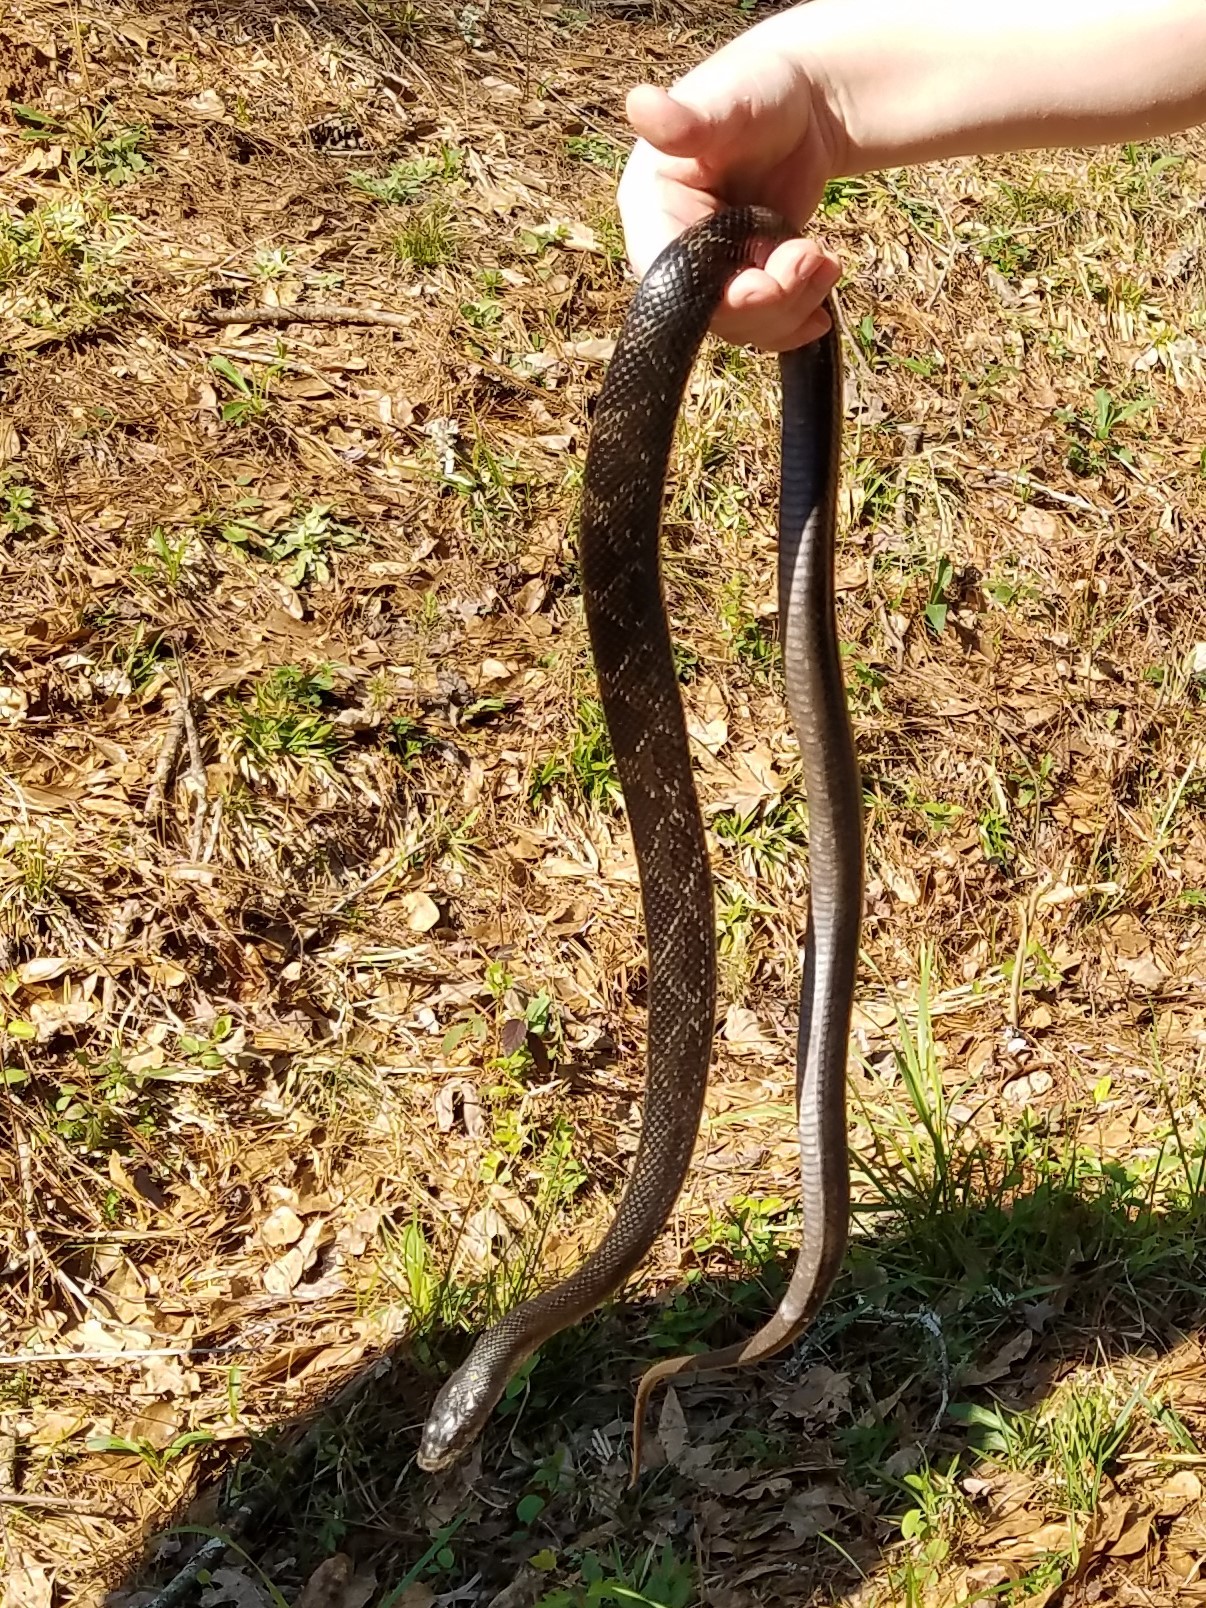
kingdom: Animalia
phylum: Chordata
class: Squamata
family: Colubridae
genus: Pantherophis
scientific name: Pantherophis
